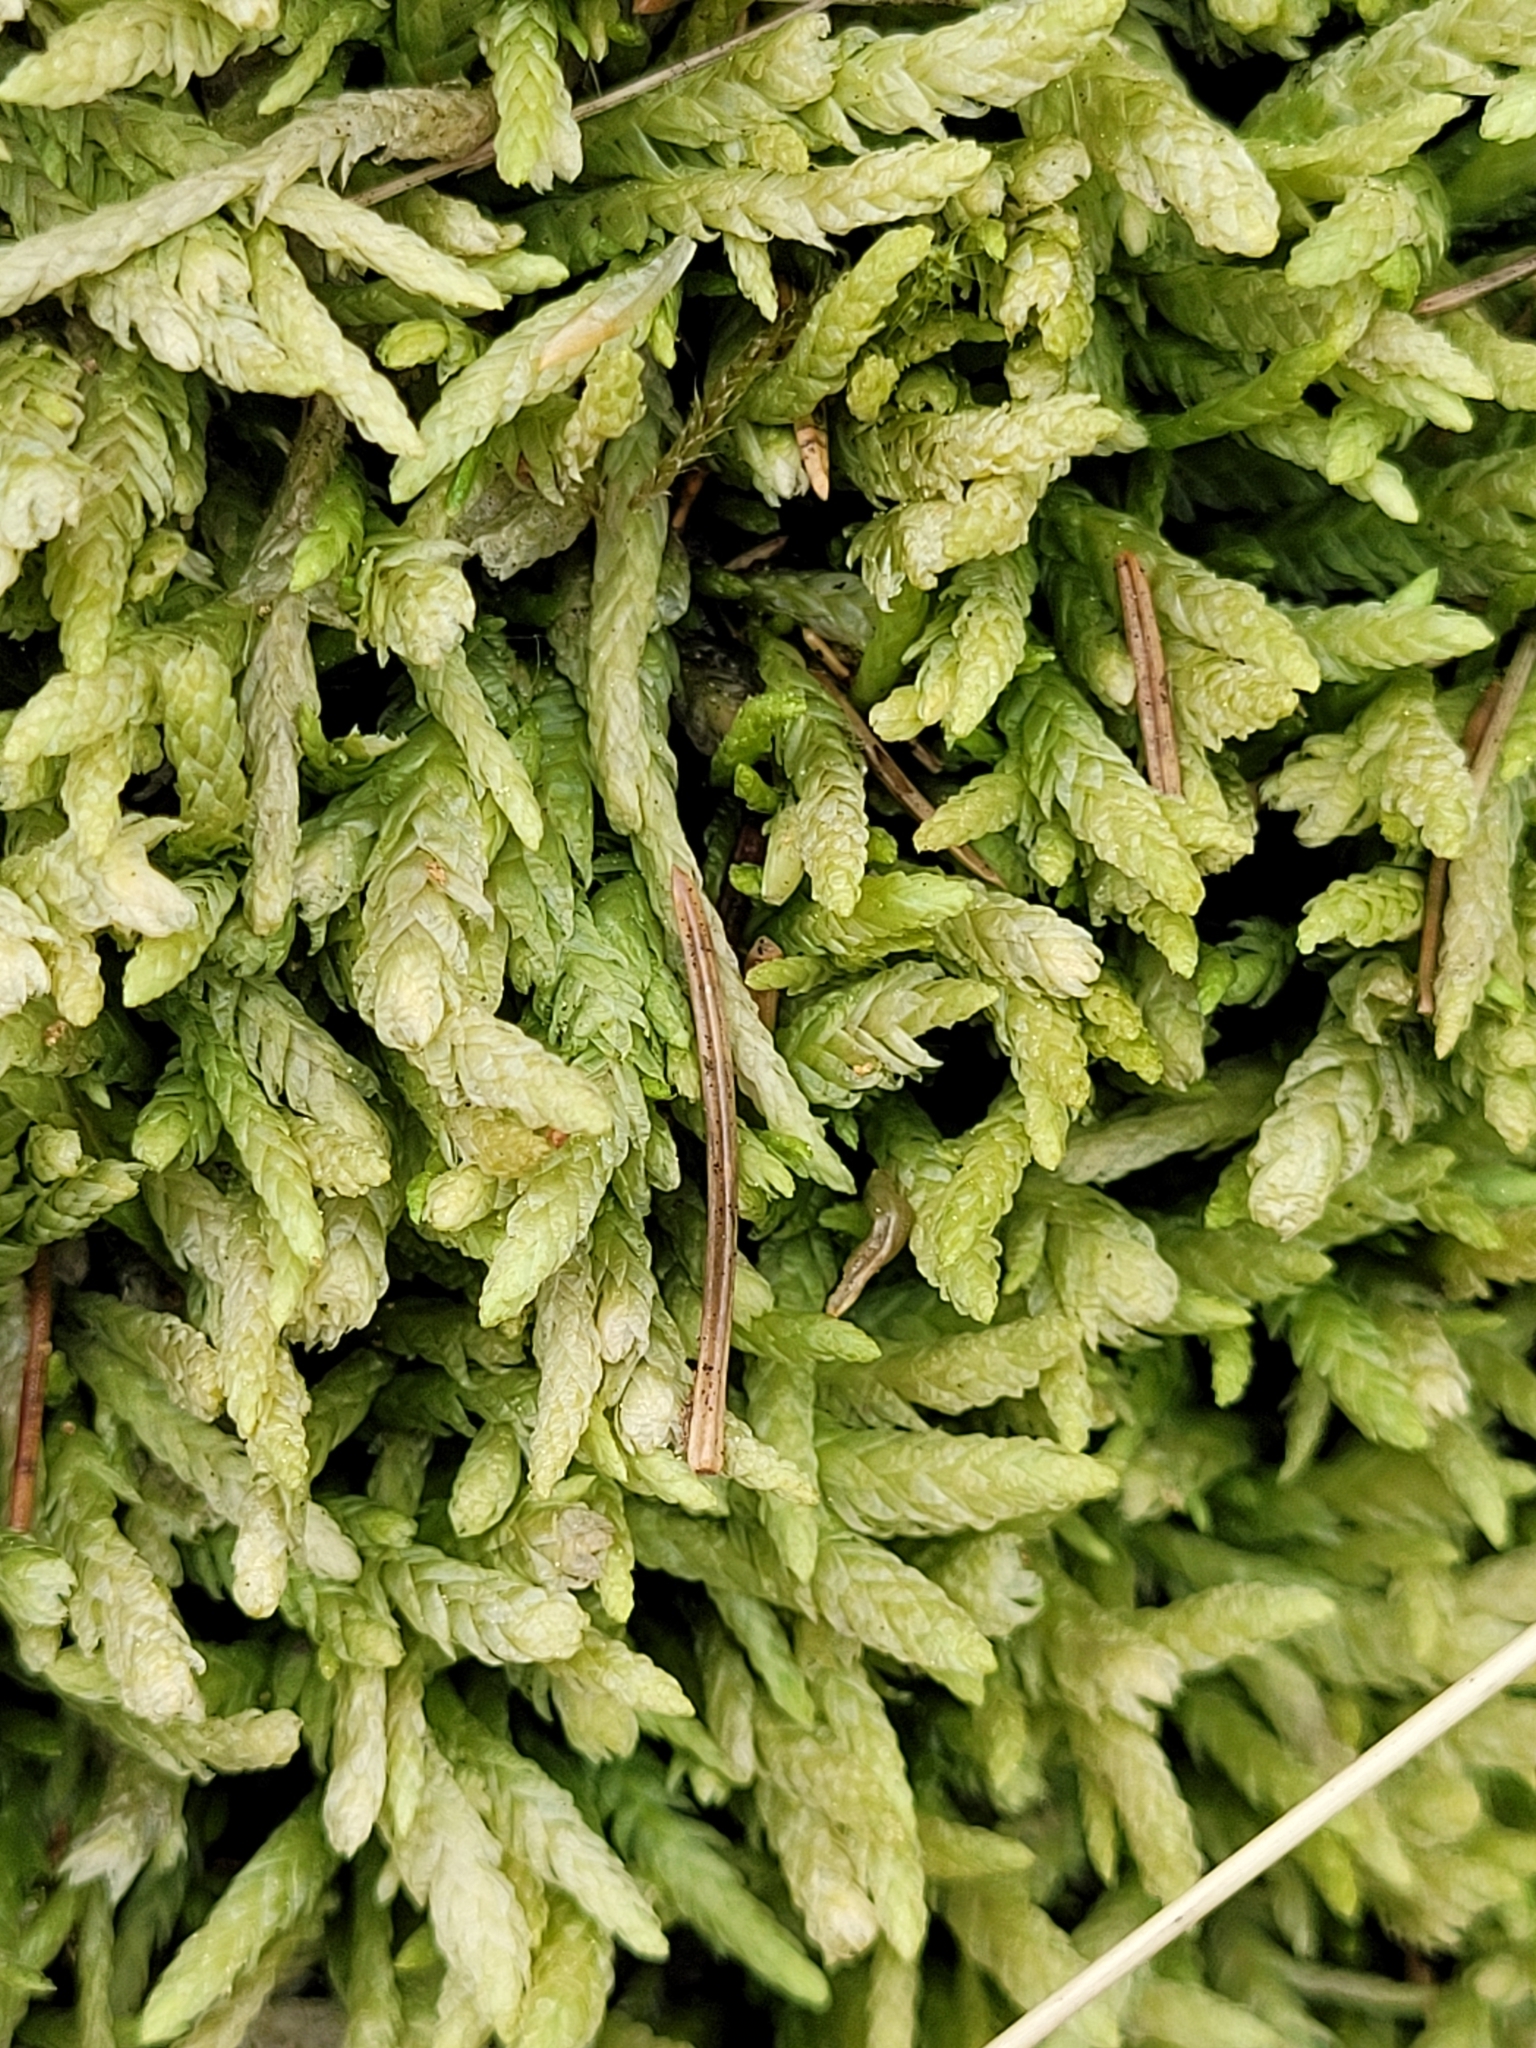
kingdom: Plantae
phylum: Bryophyta
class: Bryopsida
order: Hypnales
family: Plagiotheciaceae
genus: Plagiothecium
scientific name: Plagiothecium undulatum
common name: Waved silk-moss
